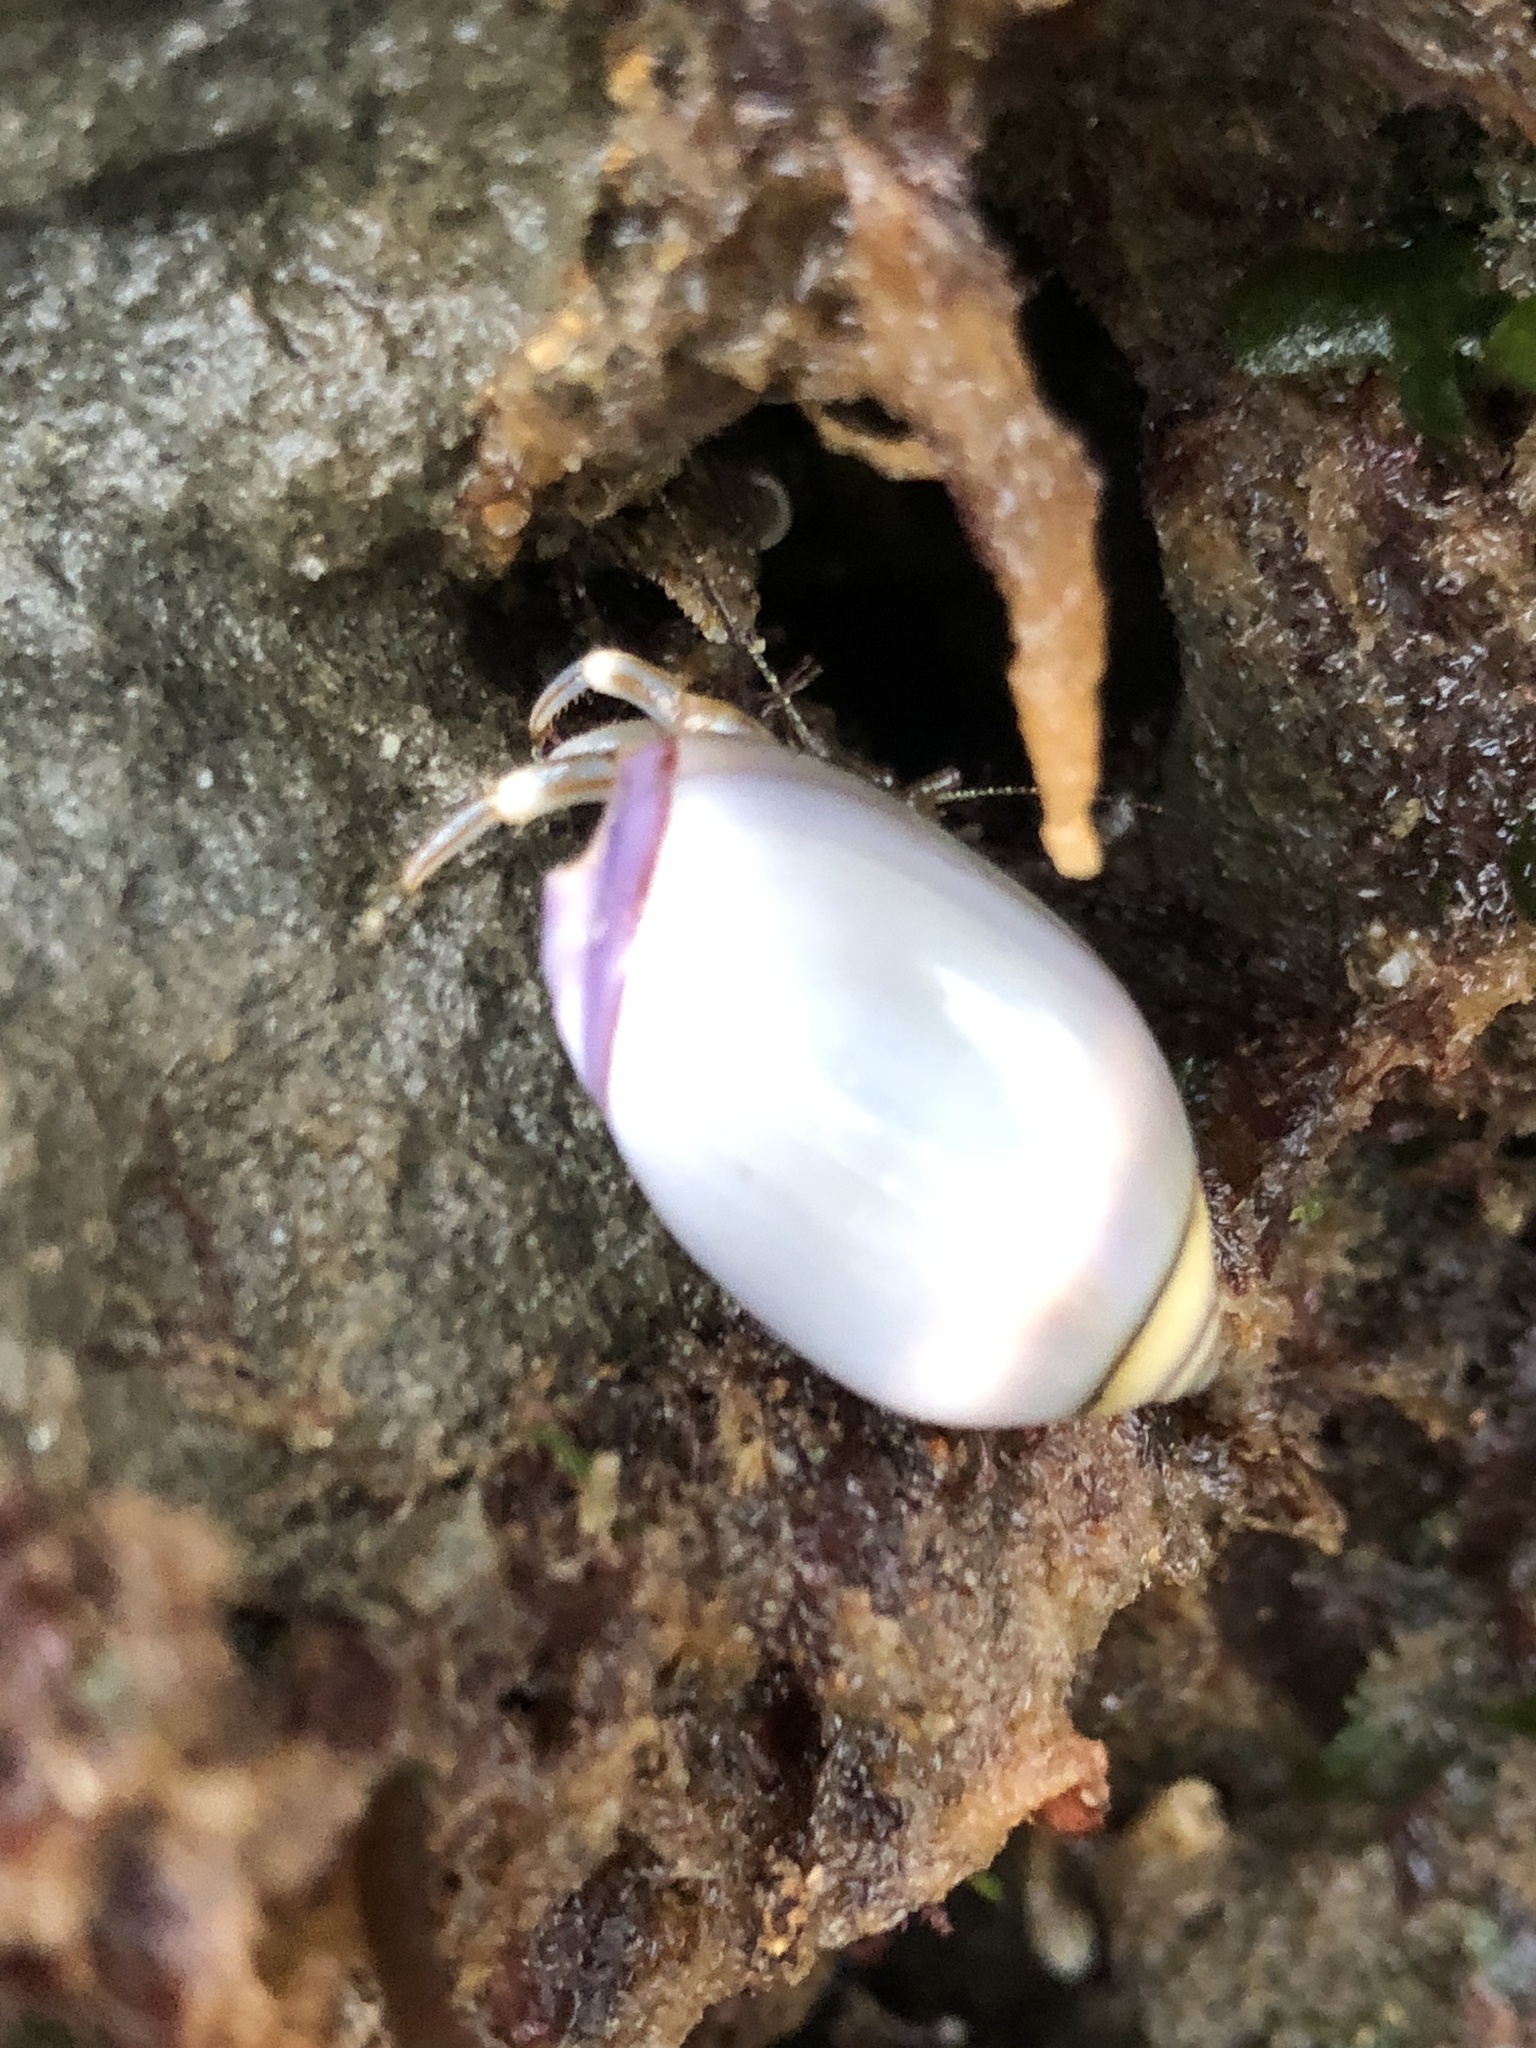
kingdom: Animalia
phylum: Mollusca
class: Gastropoda
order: Neogastropoda
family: Olividae
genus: Callianax
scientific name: Callianax biplicata
